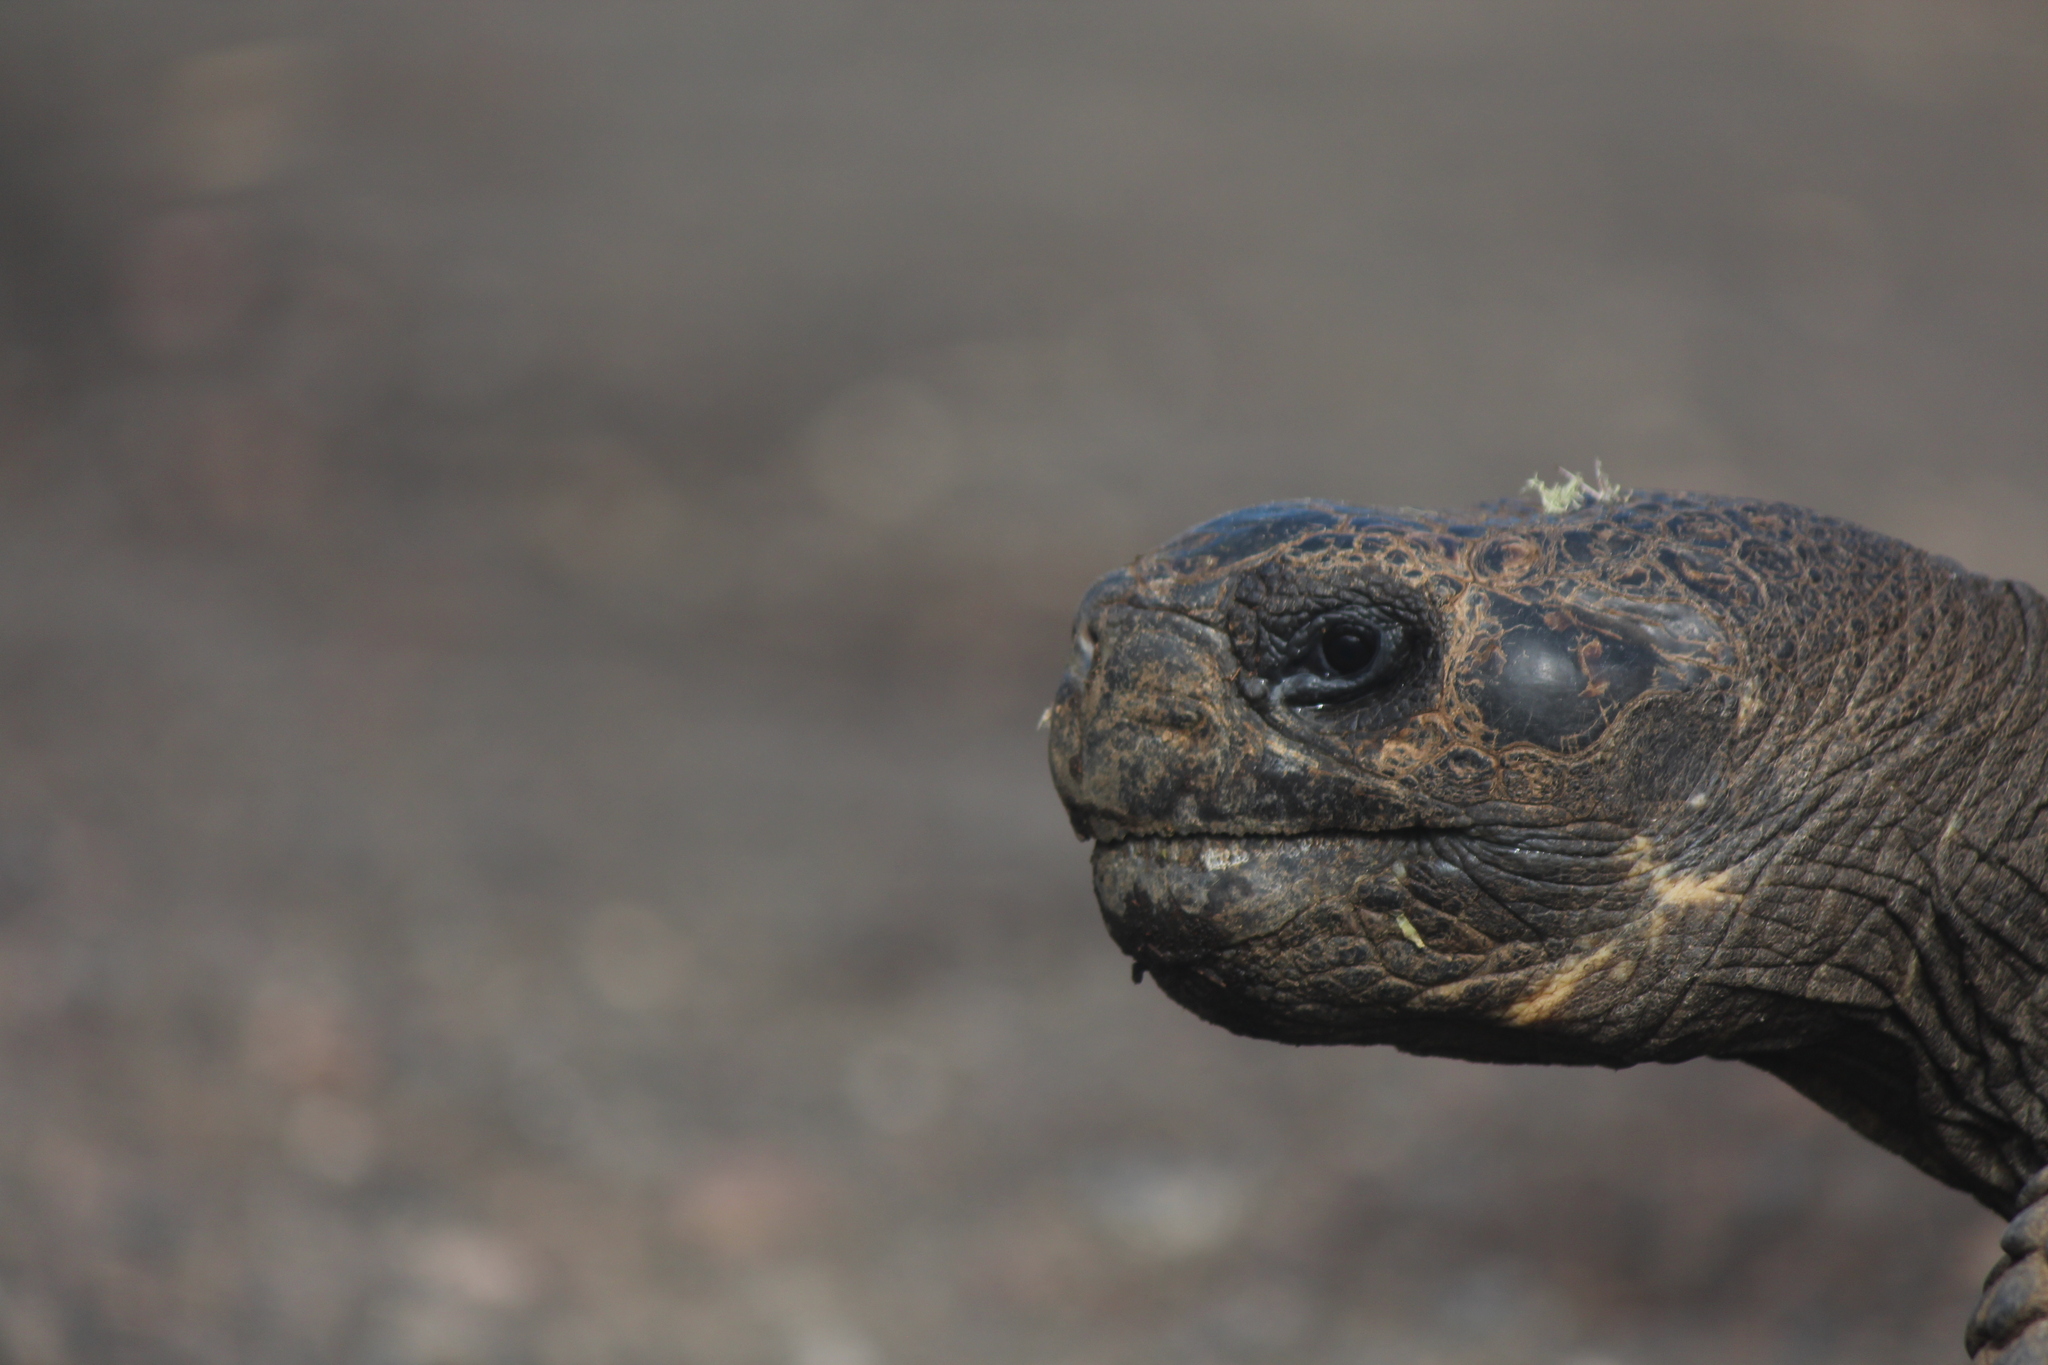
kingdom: Animalia
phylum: Chordata
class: Testudines
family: Testudinidae
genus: Chelonoidis
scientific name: Chelonoidis niger
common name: Charles island giant tortoise
